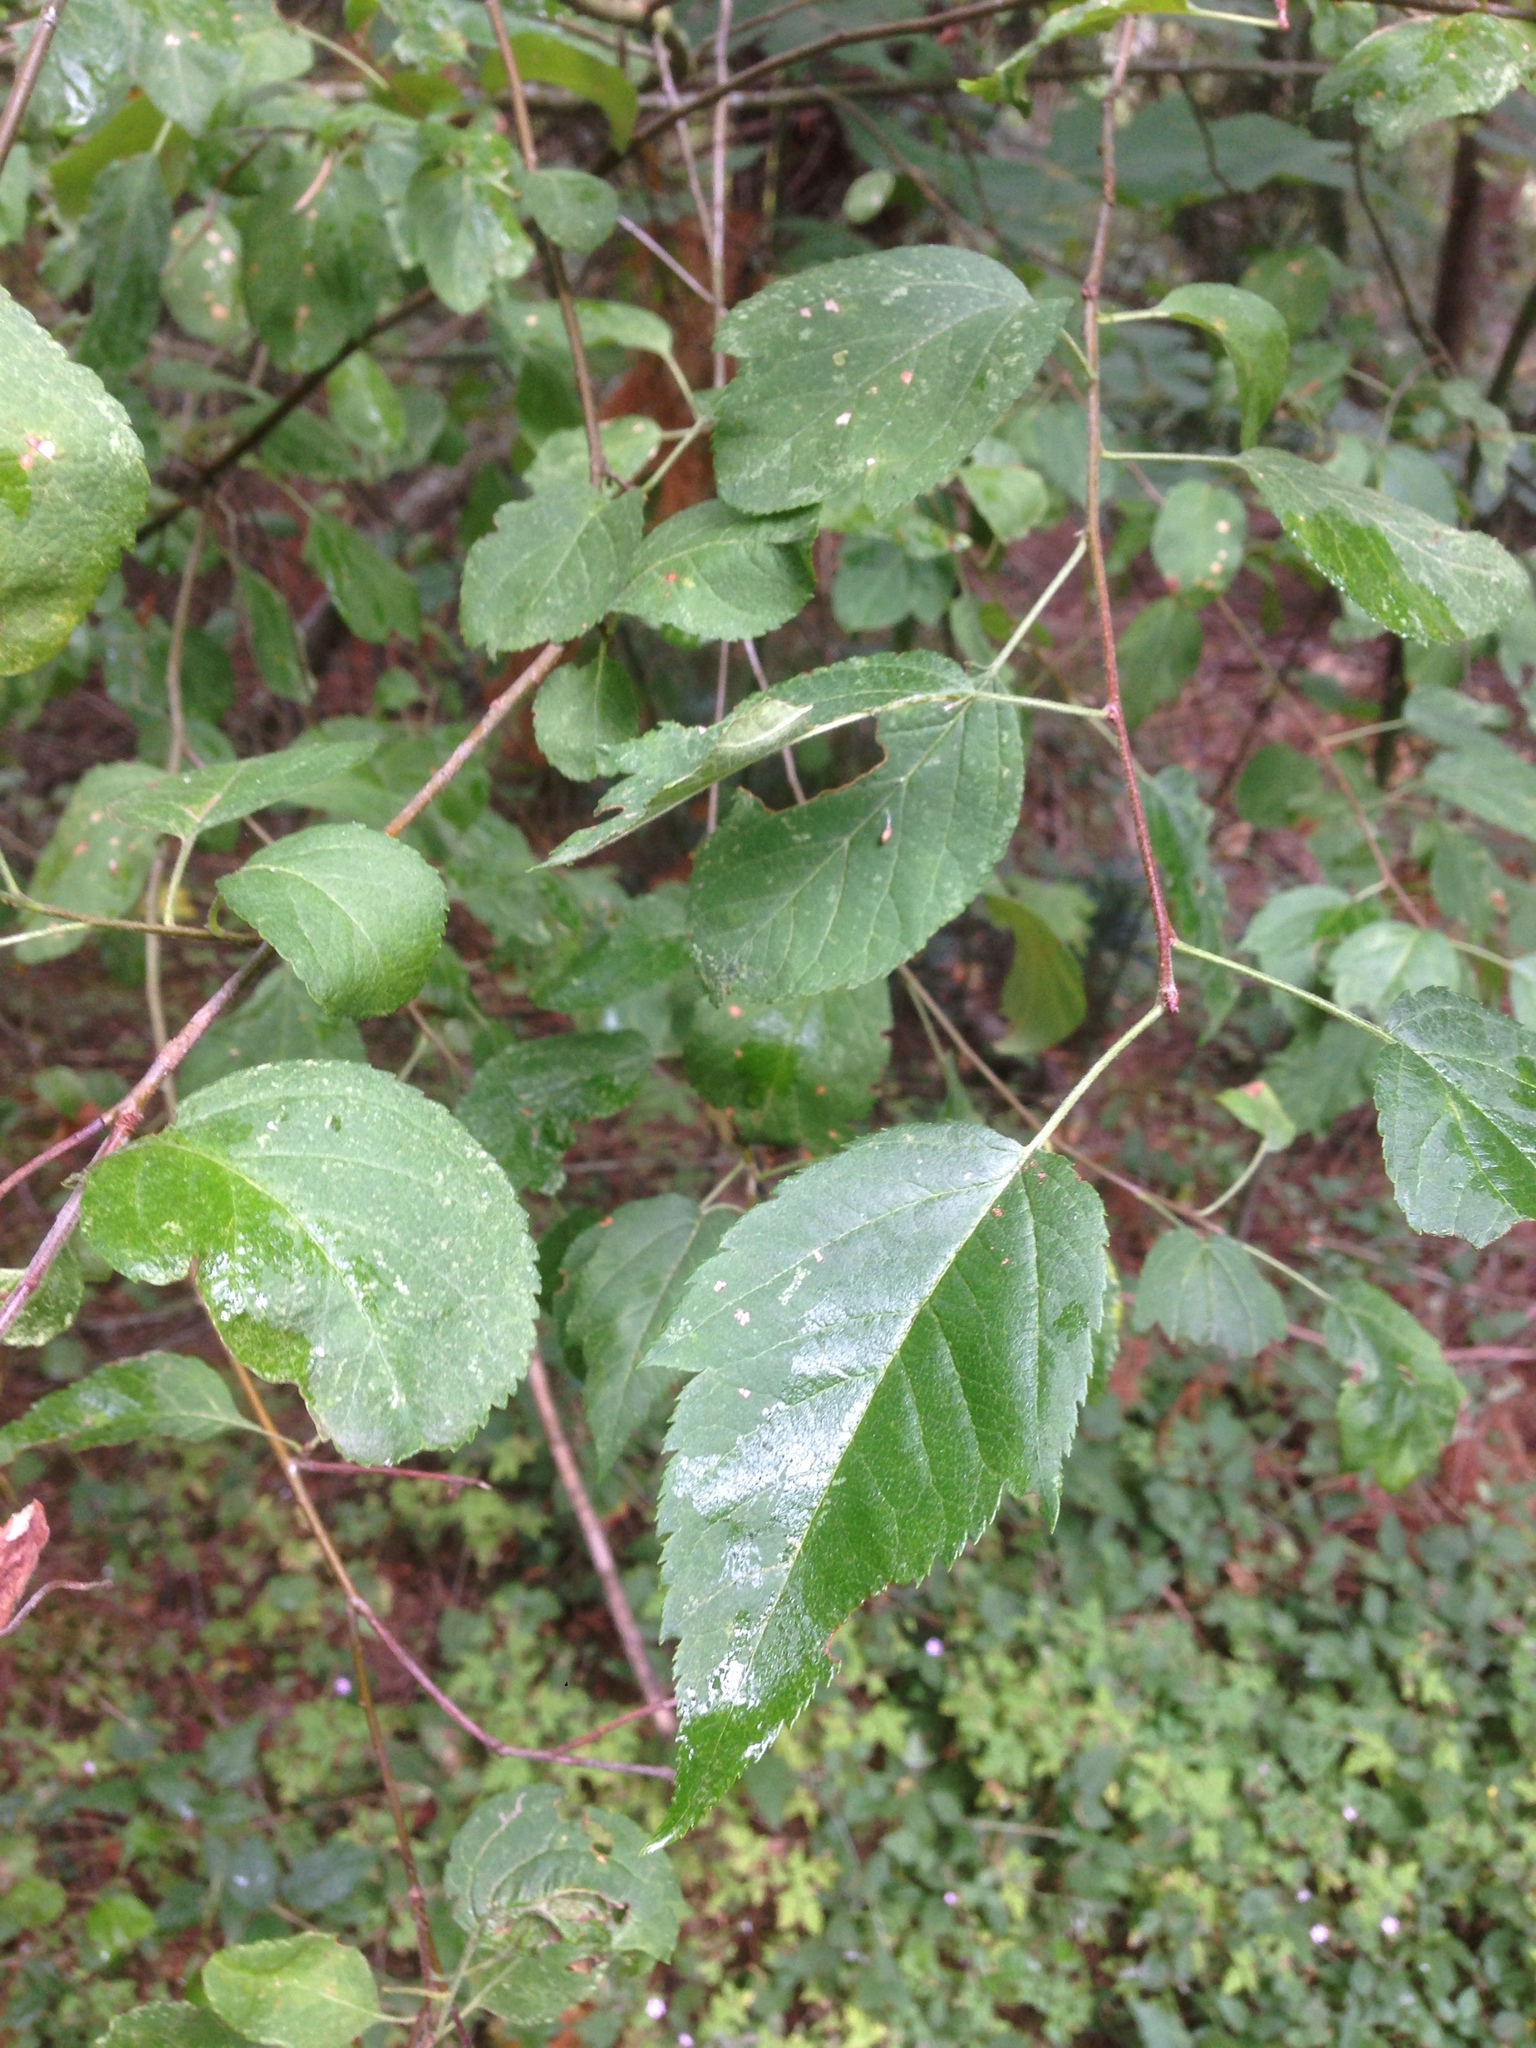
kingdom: Plantae
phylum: Tracheophyta
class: Magnoliopsida
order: Rosales
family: Rosaceae
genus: Malus
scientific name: Malus fusca
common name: Oregon crab apple
